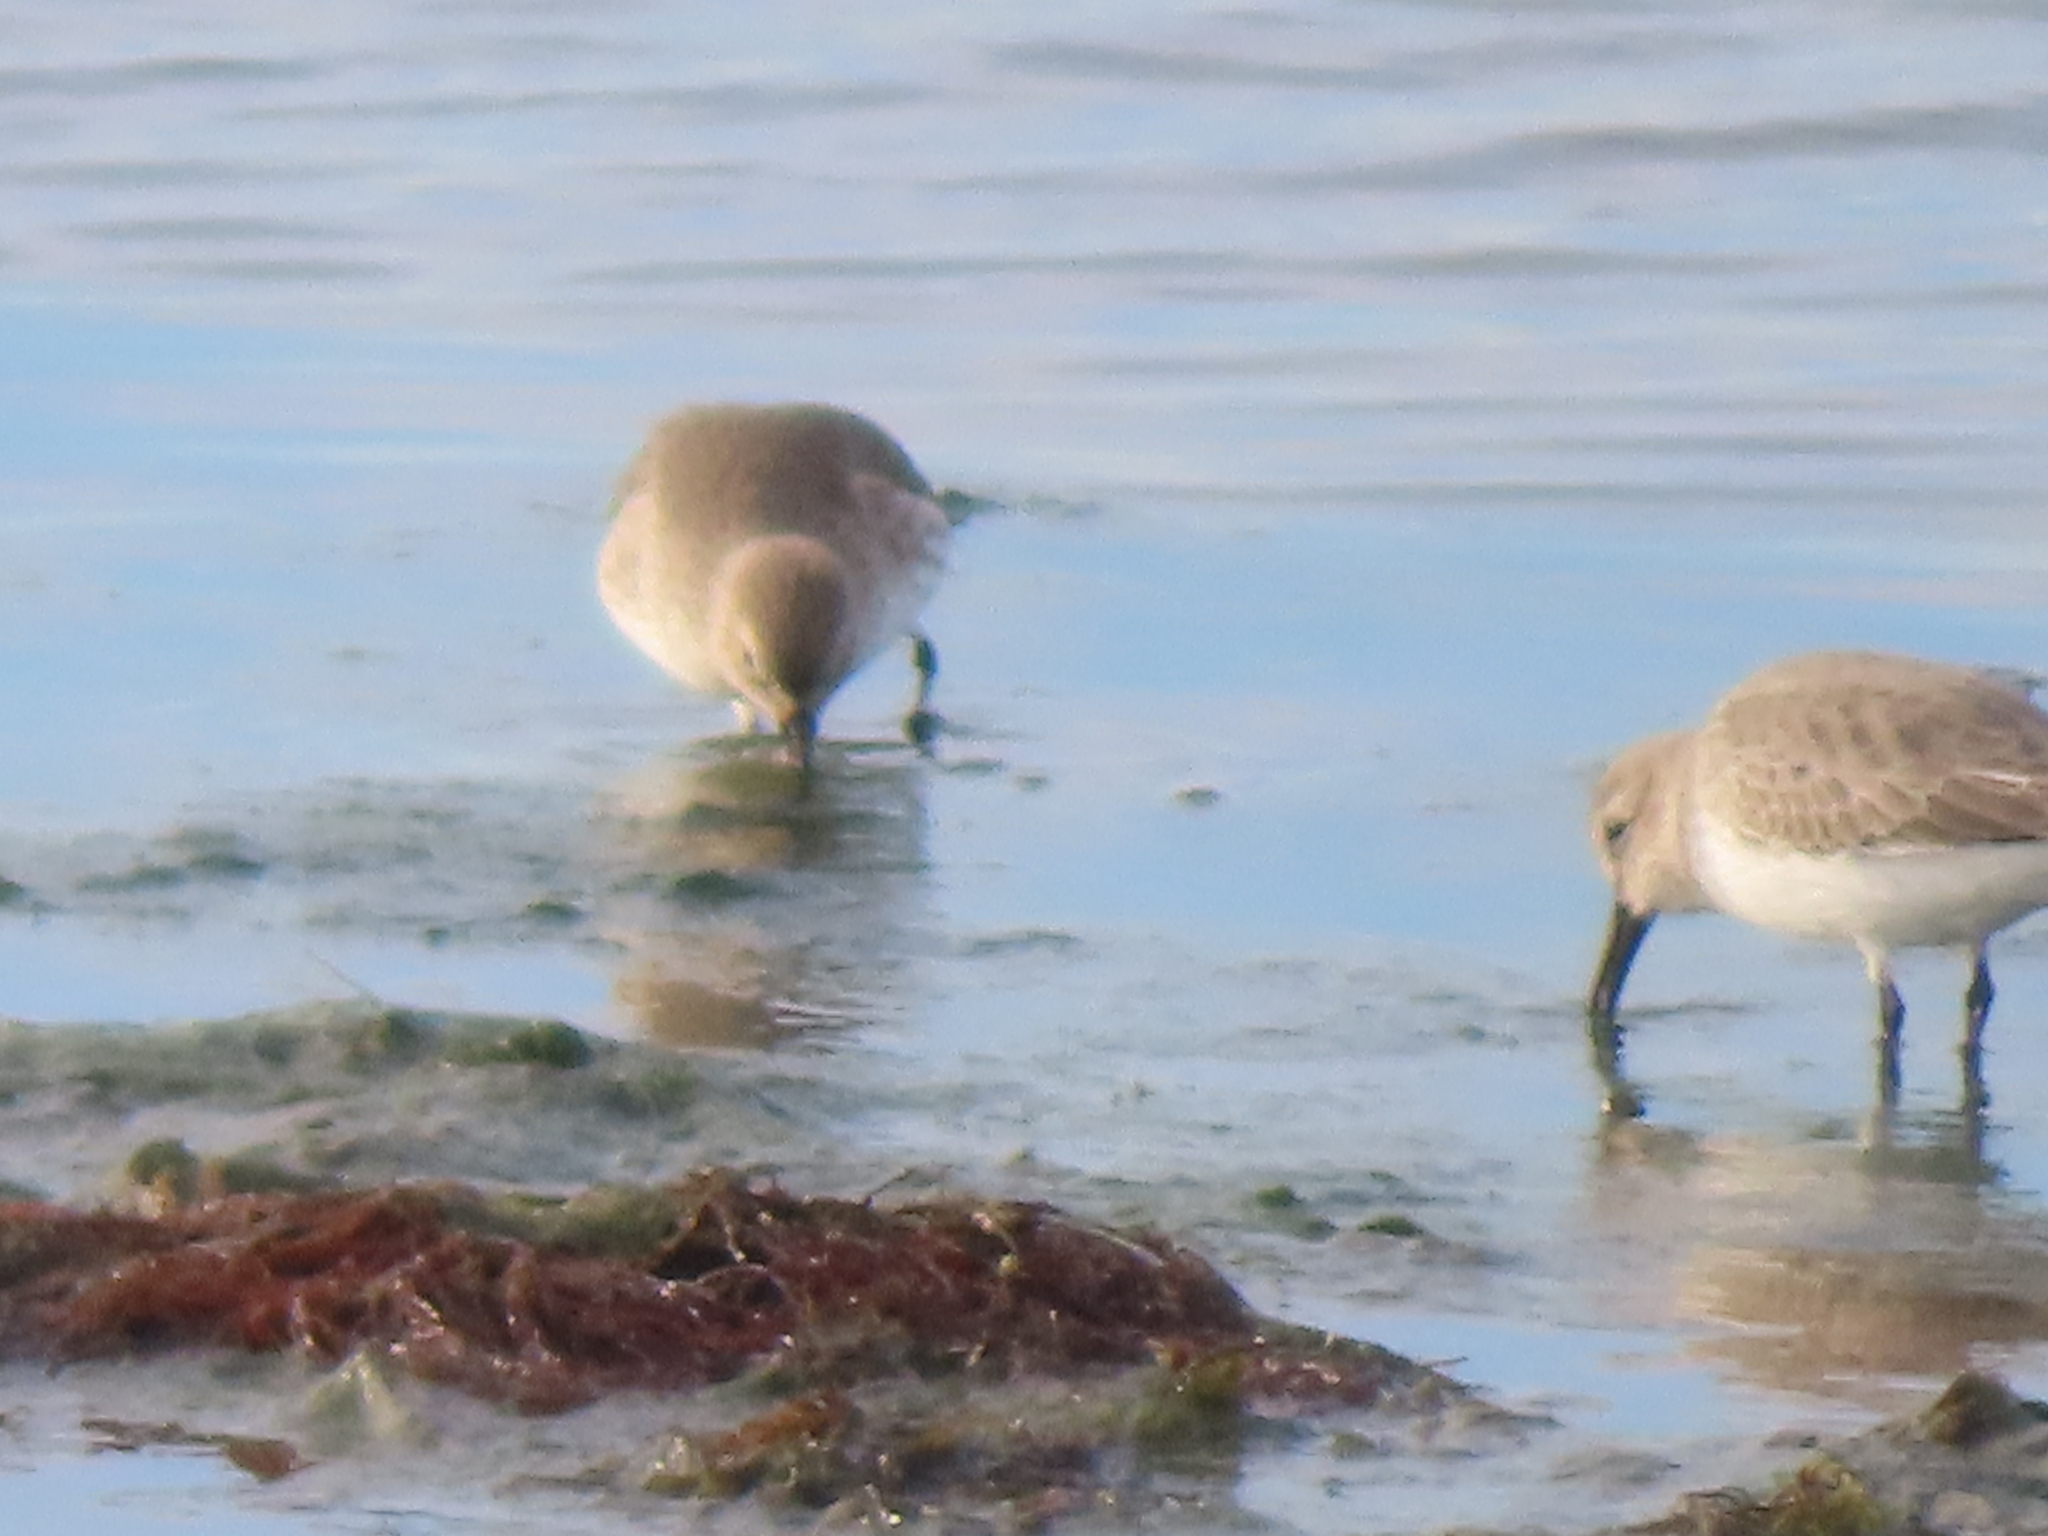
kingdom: Animalia
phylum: Chordata
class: Aves
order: Charadriiformes
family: Scolopacidae
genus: Calidris
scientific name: Calidris alpina
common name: Dunlin
